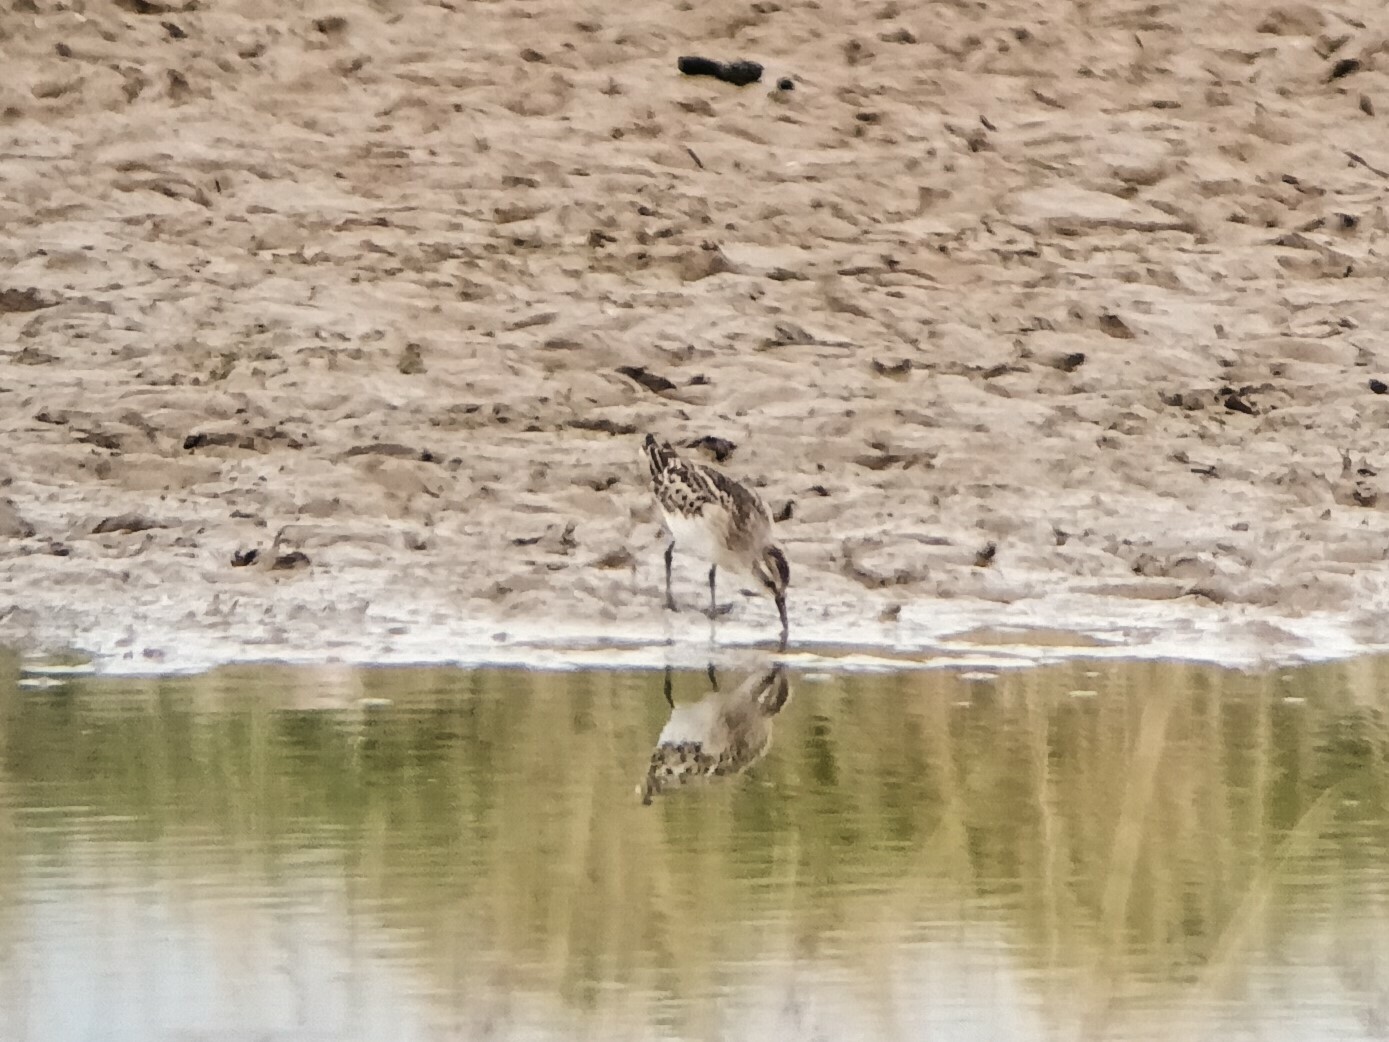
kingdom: Animalia
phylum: Chordata
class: Aves
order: Charadriiformes
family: Scolopacidae
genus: Calidris
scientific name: Calidris minuta
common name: Little stint
